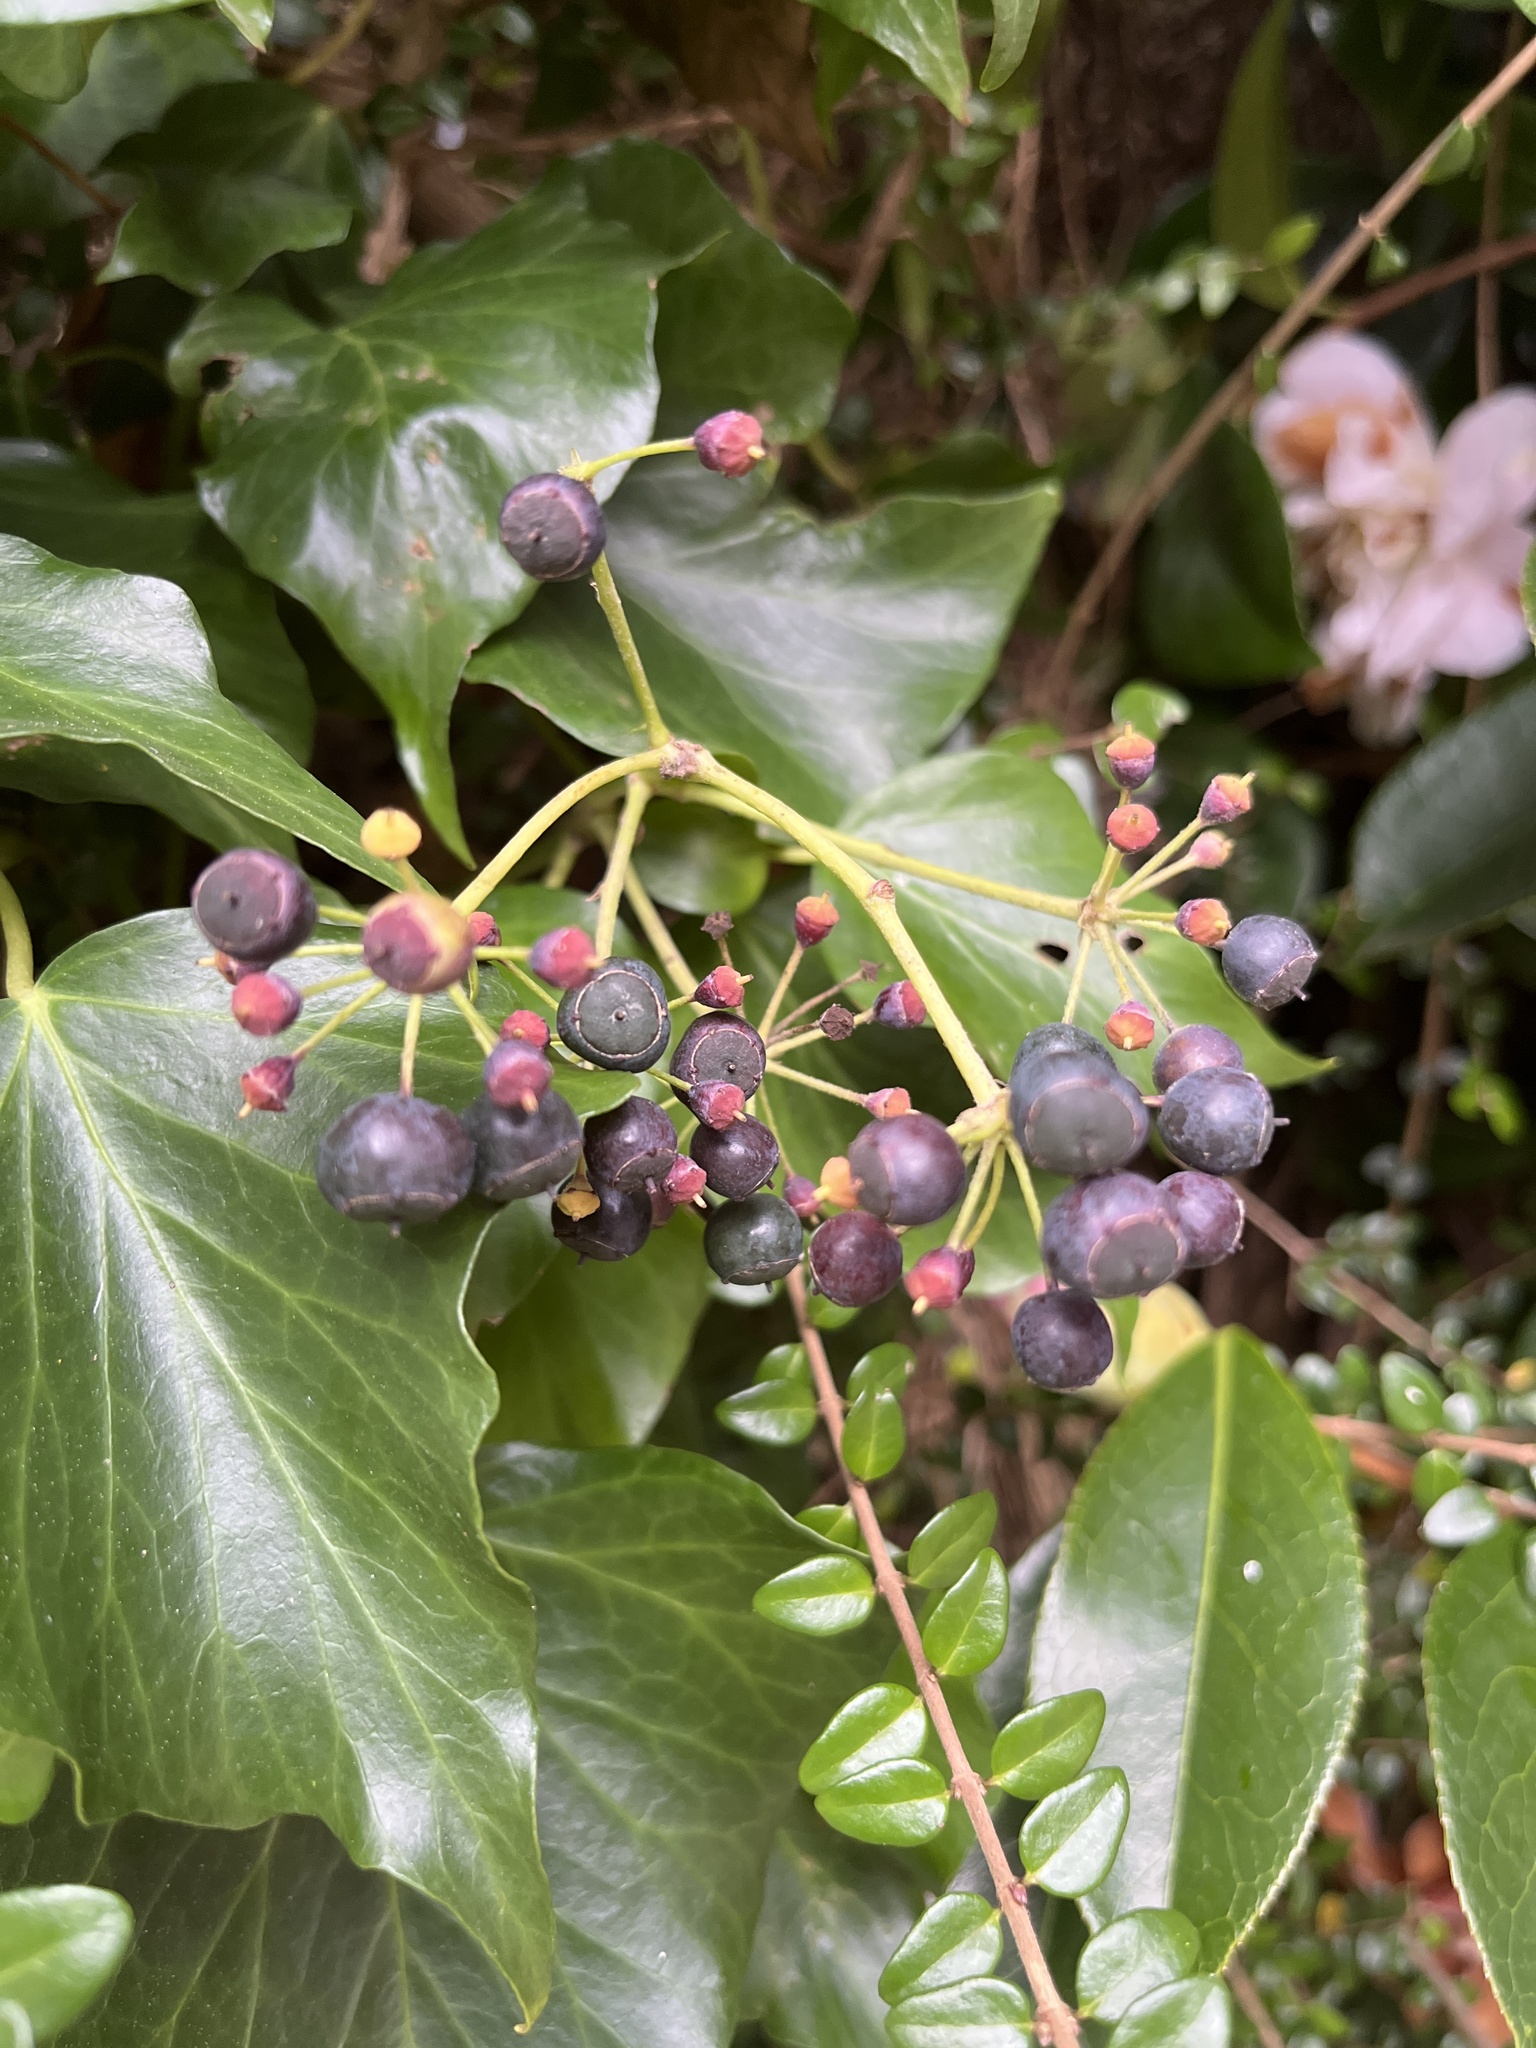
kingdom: Plantae
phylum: Tracheophyta
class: Magnoliopsida
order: Apiales
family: Araliaceae
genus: Hedera
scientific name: Hedera helix
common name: Ivy
